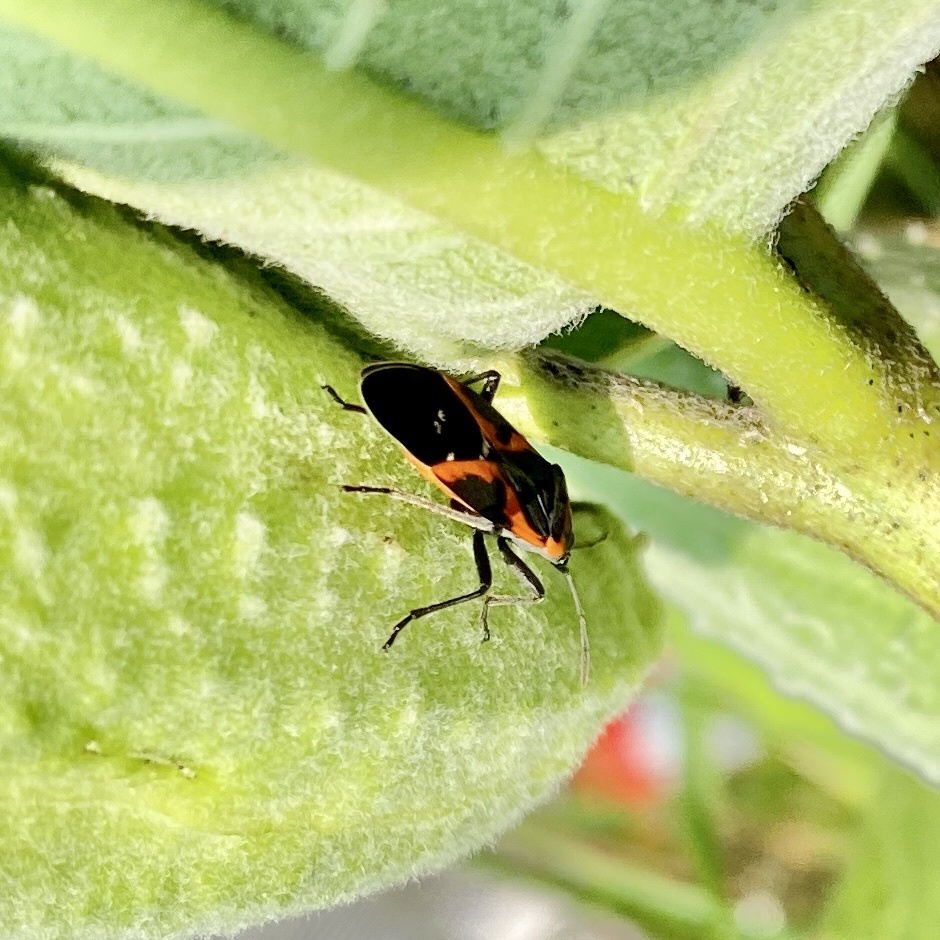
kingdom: Animalia
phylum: Arthropoda
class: Insecta
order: Hemiptera
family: Lygaeidae
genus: Lygaeus
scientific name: Lygaeus kalmii
